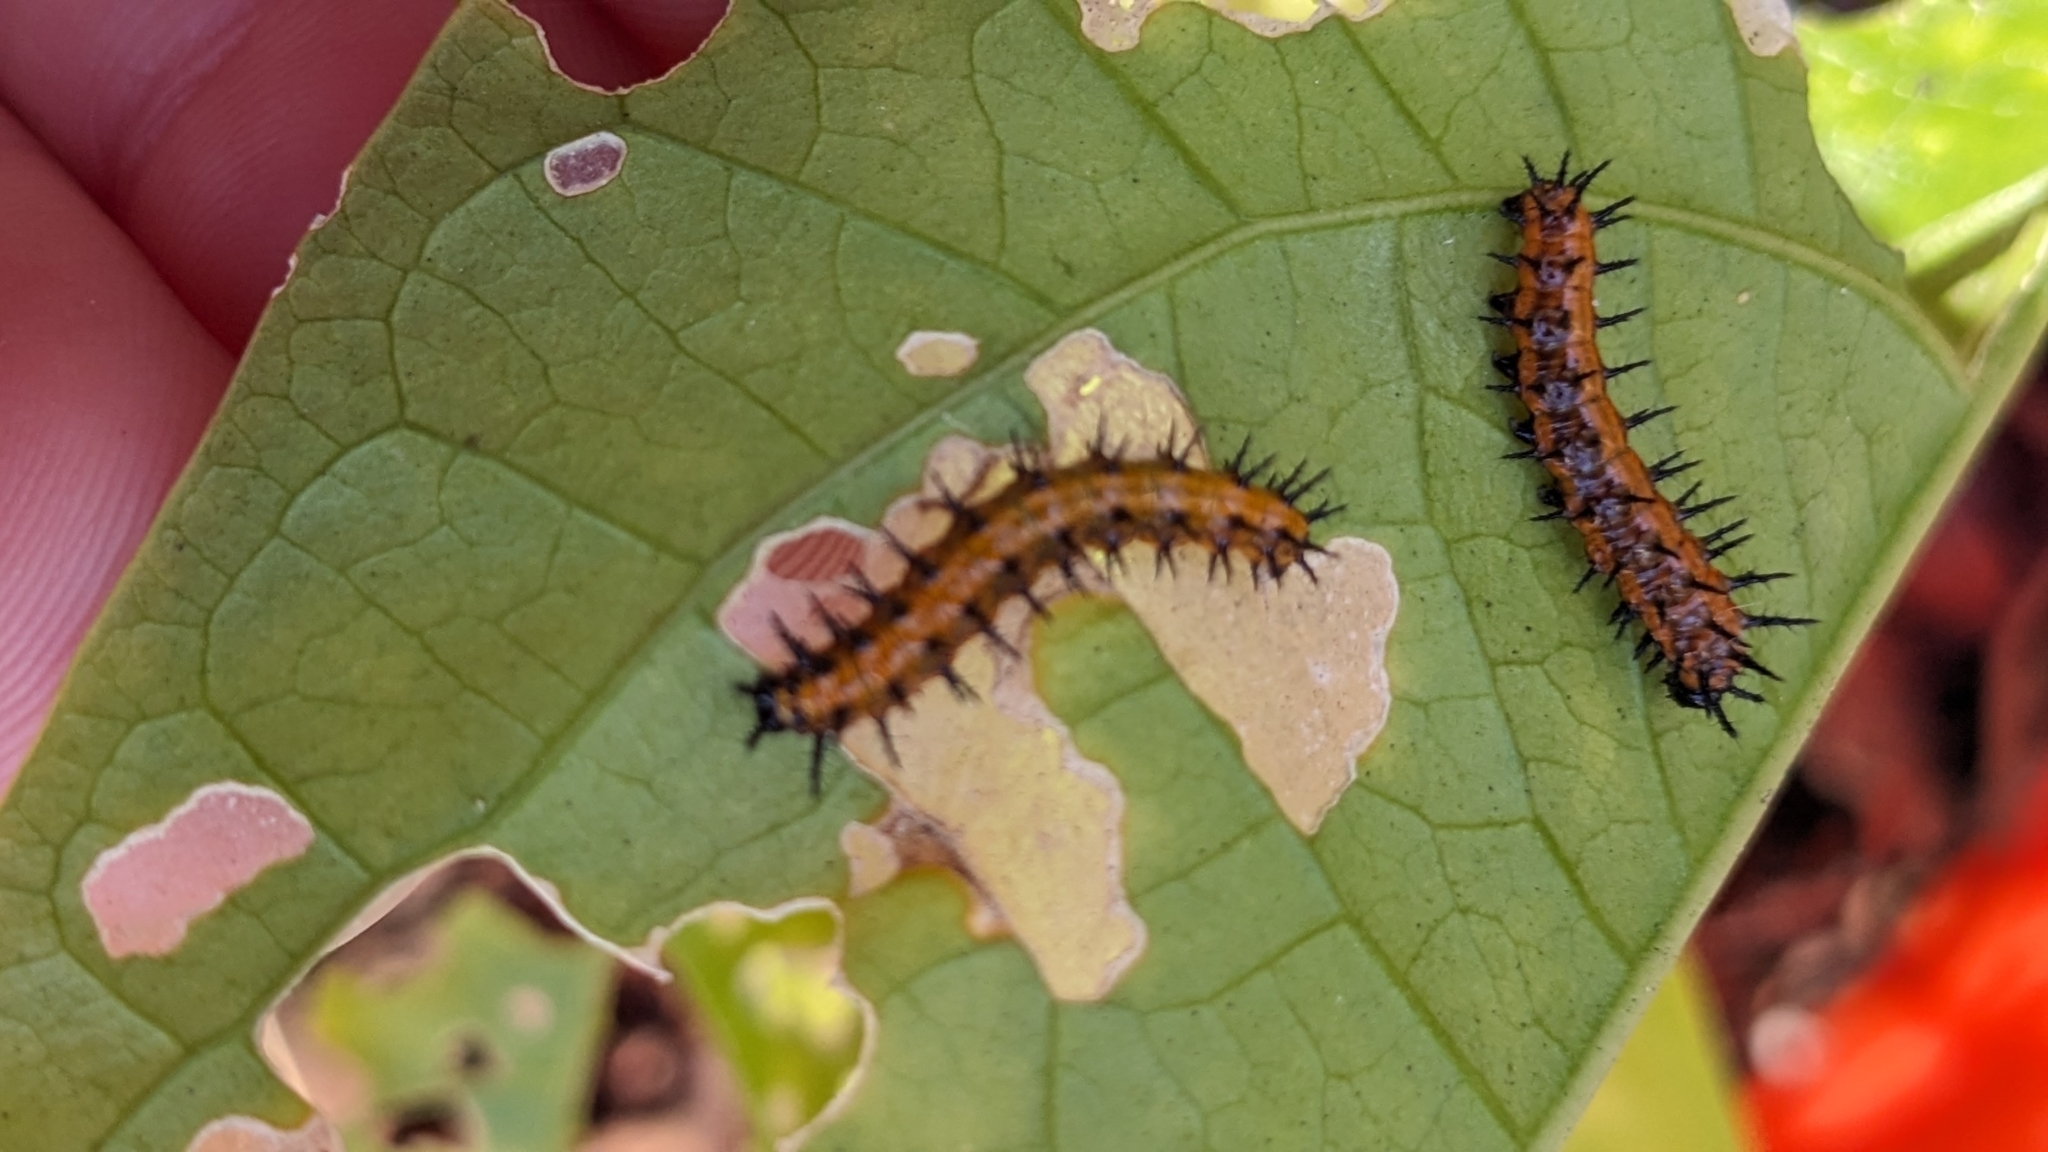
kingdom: Animalia
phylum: Arthropoda
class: Insecta
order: Lepidoptera
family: Nymphalidae
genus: Dione
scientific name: Dione vanillae
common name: Gulf fritillary
